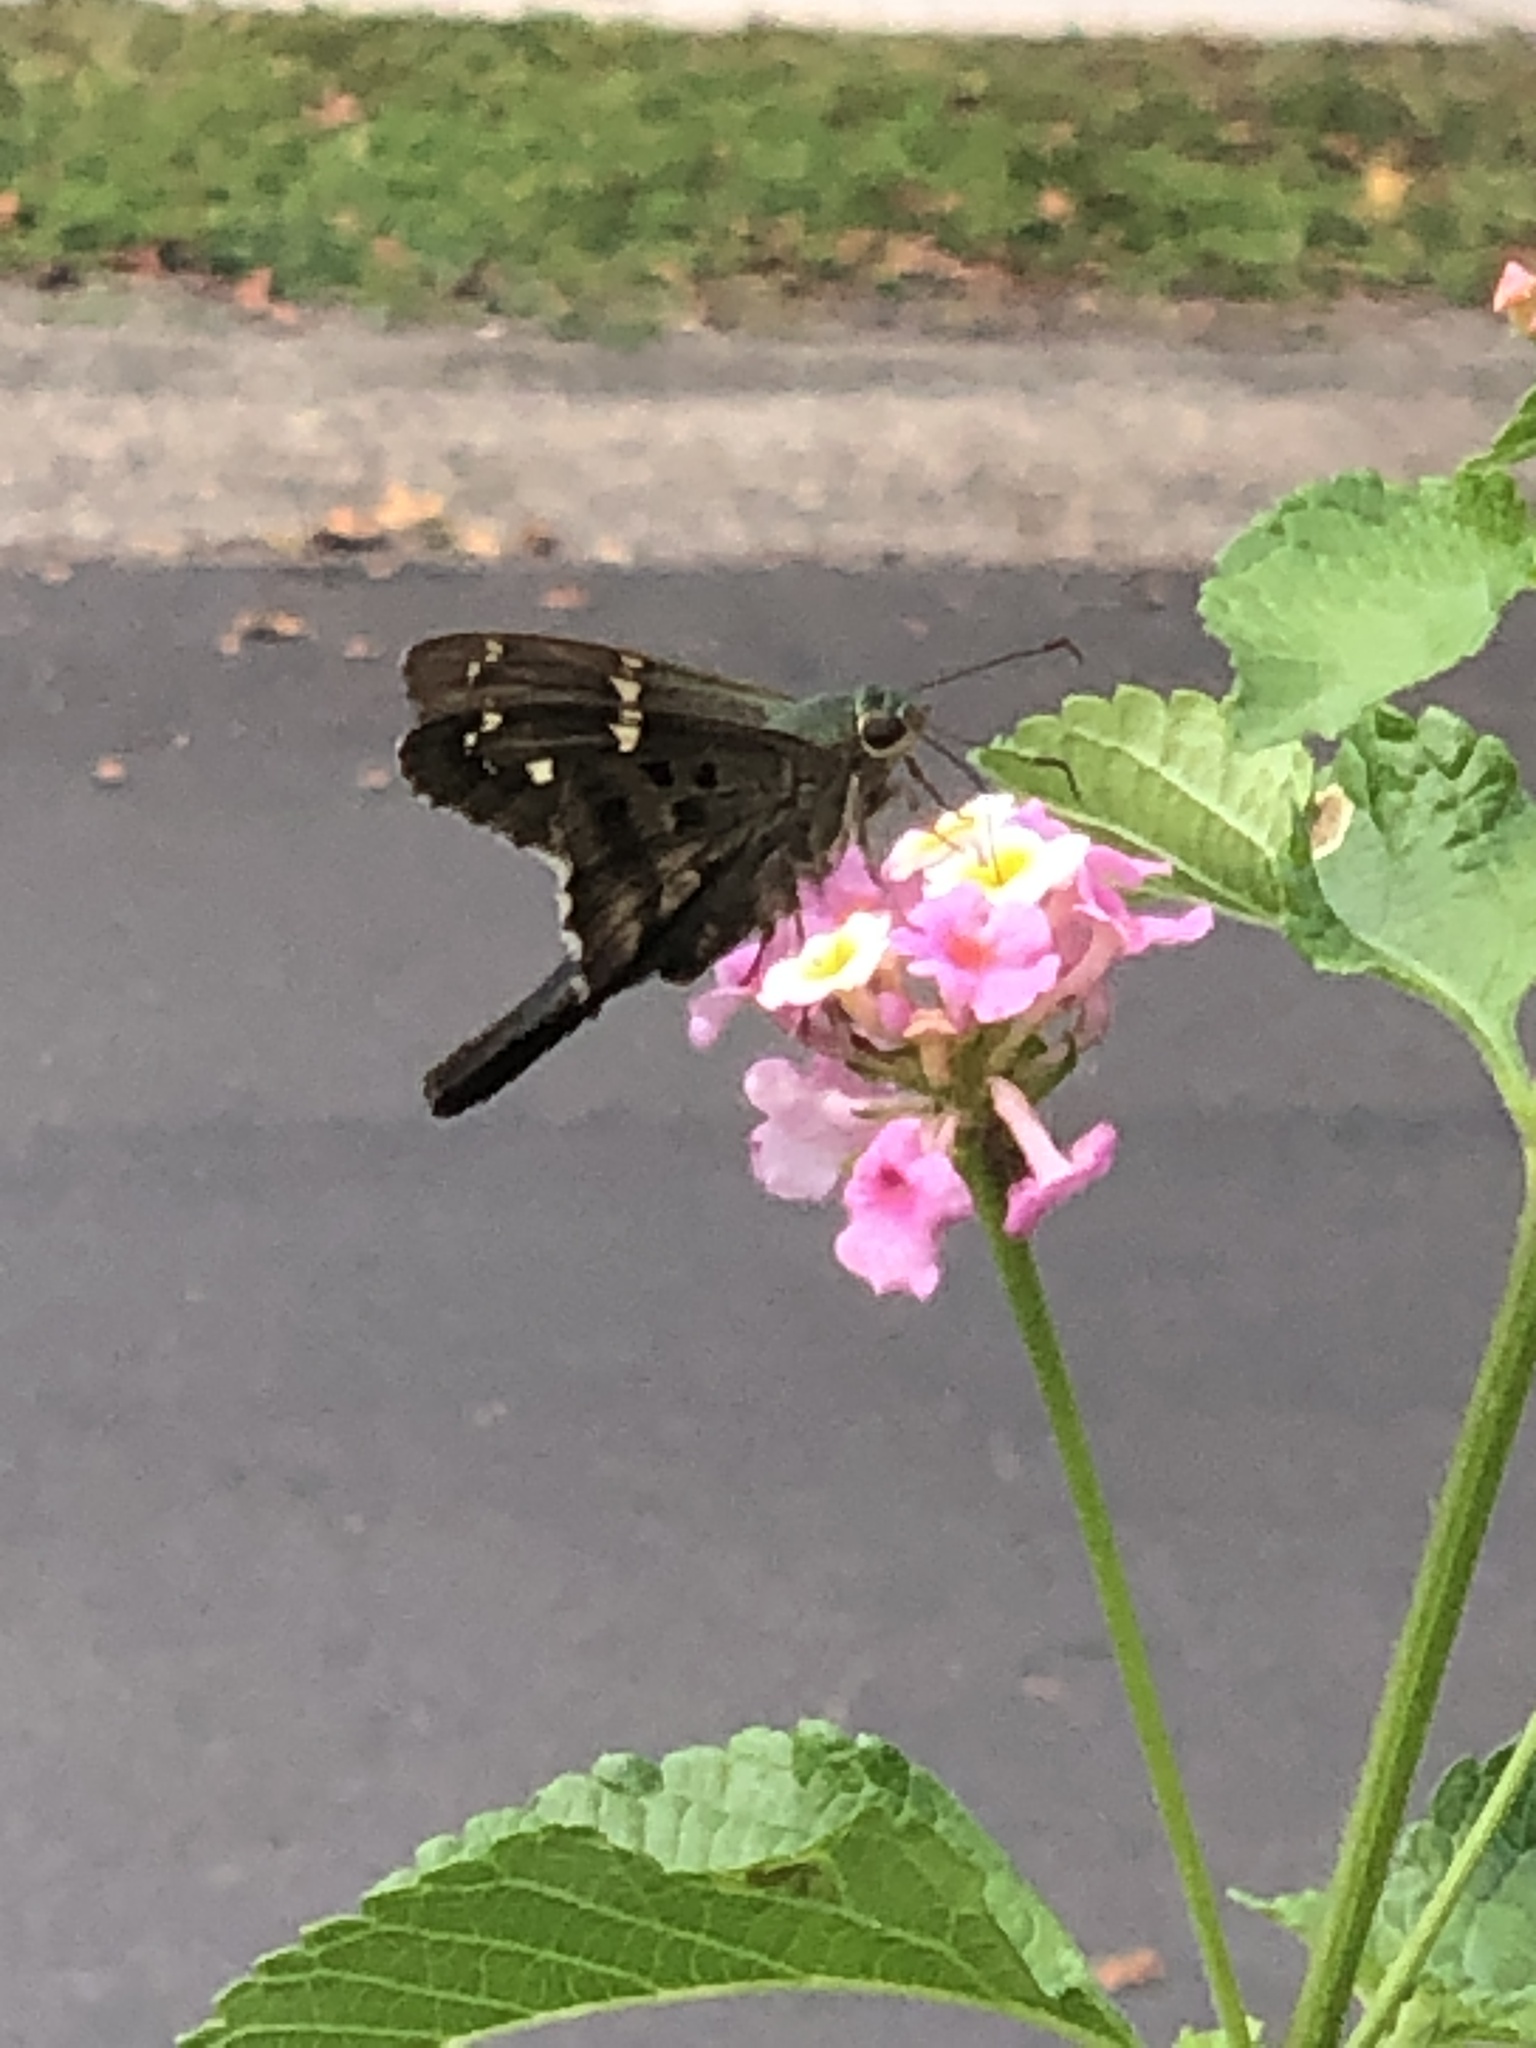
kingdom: Animalia
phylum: Arthropoda
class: Insecta
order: Lepidoptera
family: Hesperiidae
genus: Urbanus
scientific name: Urbanus proteus
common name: Long-tailed skipper
